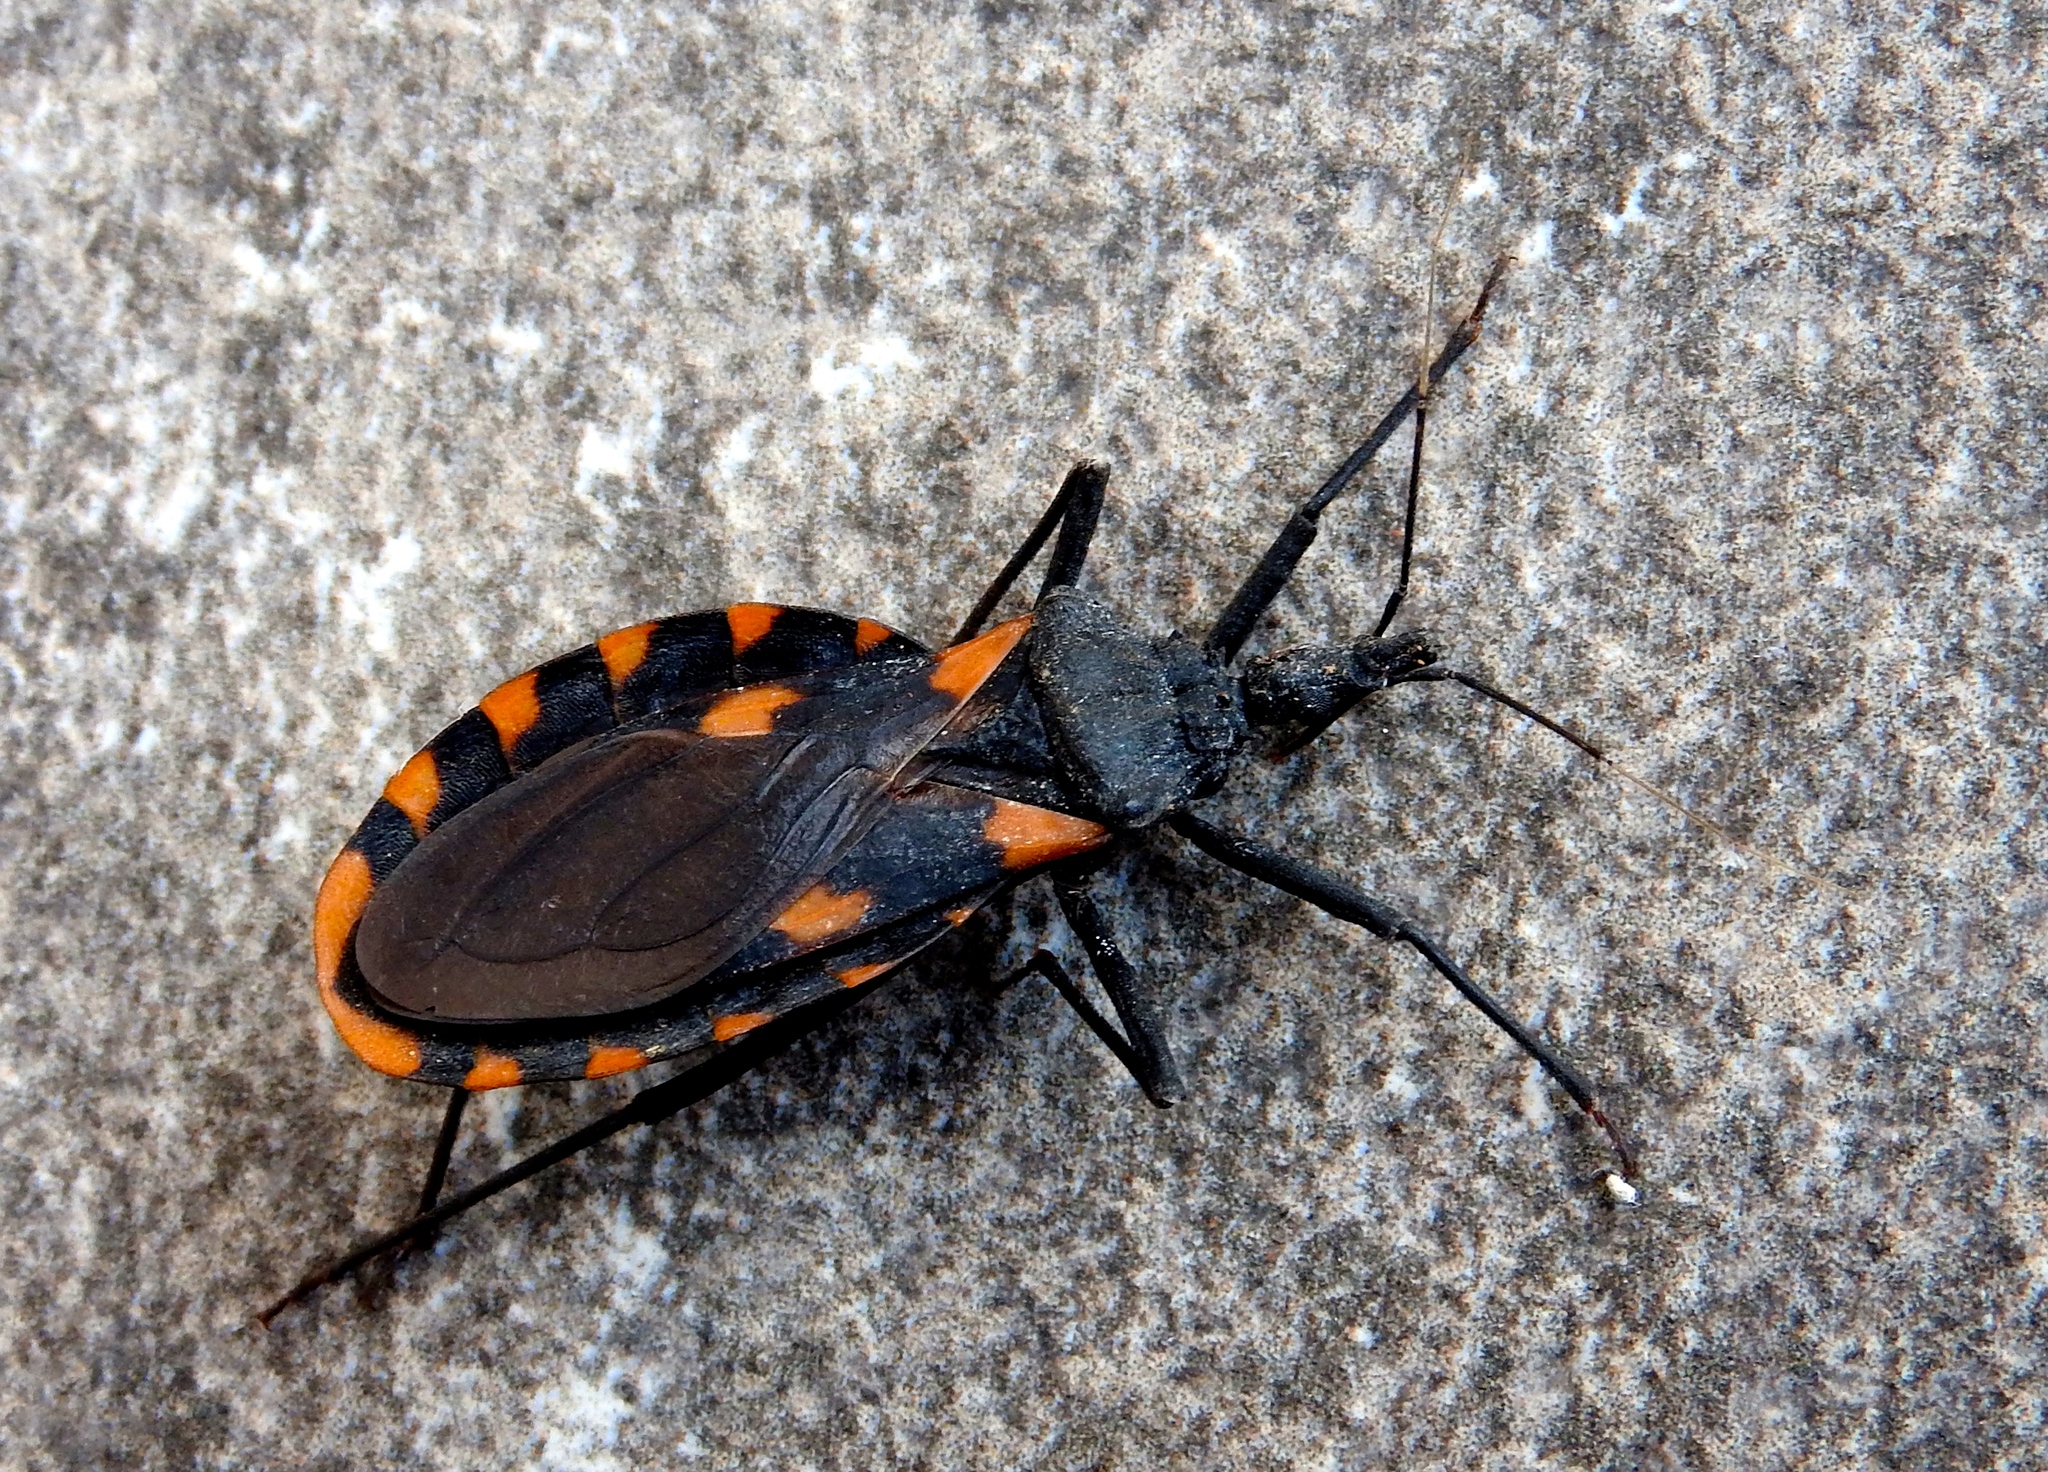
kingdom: Animalia
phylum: Arthropoda
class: Insecta
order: Hemiptera
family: Reduviidae
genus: Meccus
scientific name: Meccus longipennis
